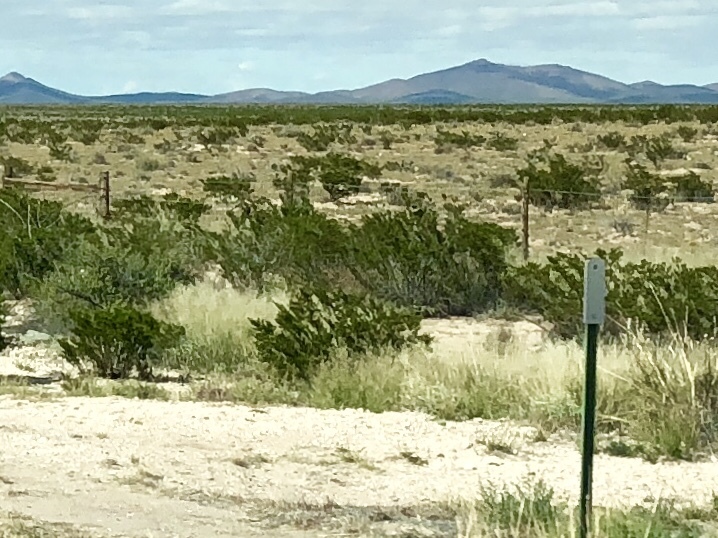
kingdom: Plantae
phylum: Tracheophyta
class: Magnoliopsida
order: Zygophyllales
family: Zygophyllaceae
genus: Larrea
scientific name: Larrea tridentata
